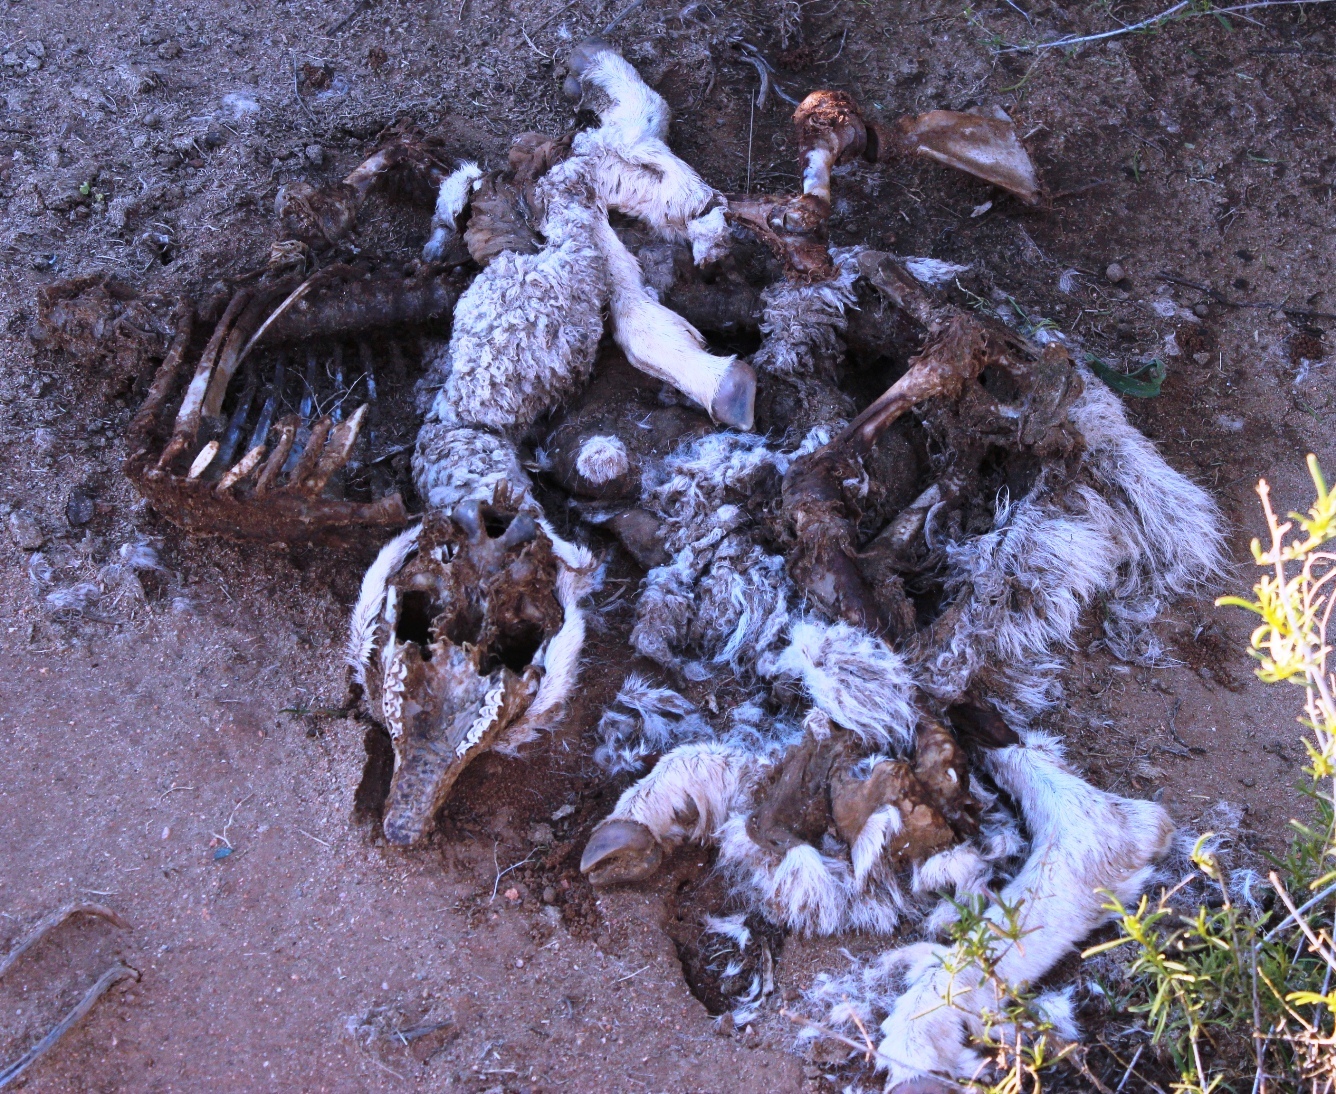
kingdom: Animalia
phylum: Chordata
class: Mammalia
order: Artiodactyla
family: Bovidae
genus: Capra
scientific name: Capra hircus
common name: Domestic goat
